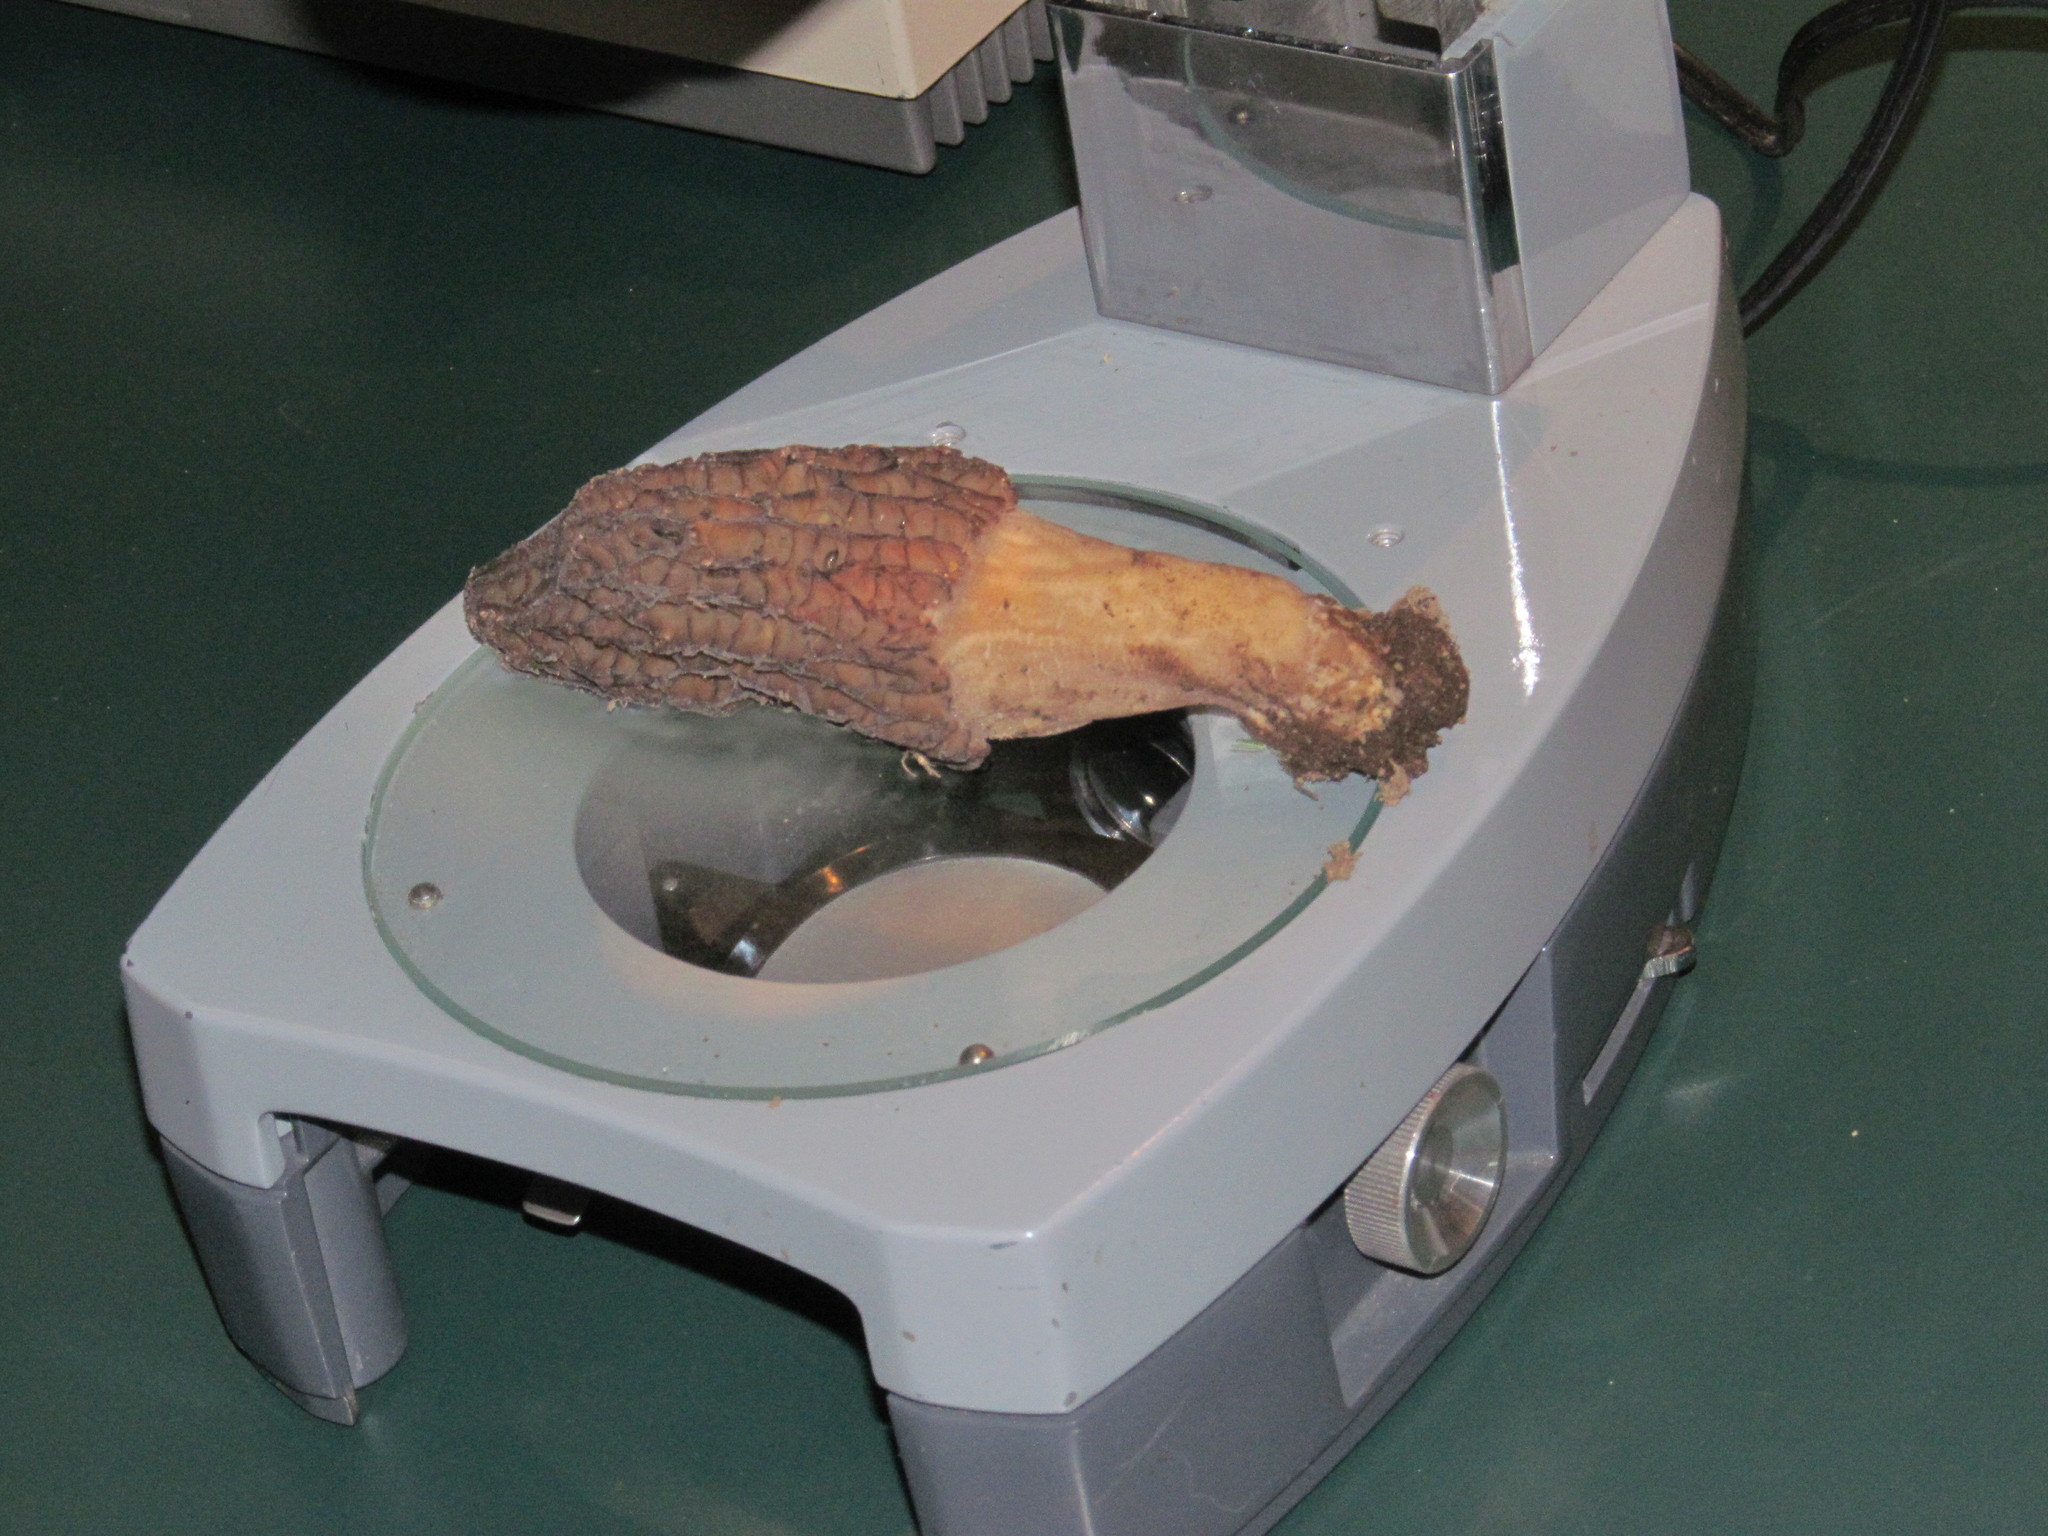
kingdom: Fungi
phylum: Ascomycota
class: Pezizomycetes
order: Pezizales
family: Morchellaceae
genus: Morchella
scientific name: Morchella importuna
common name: Landscaping black morel
